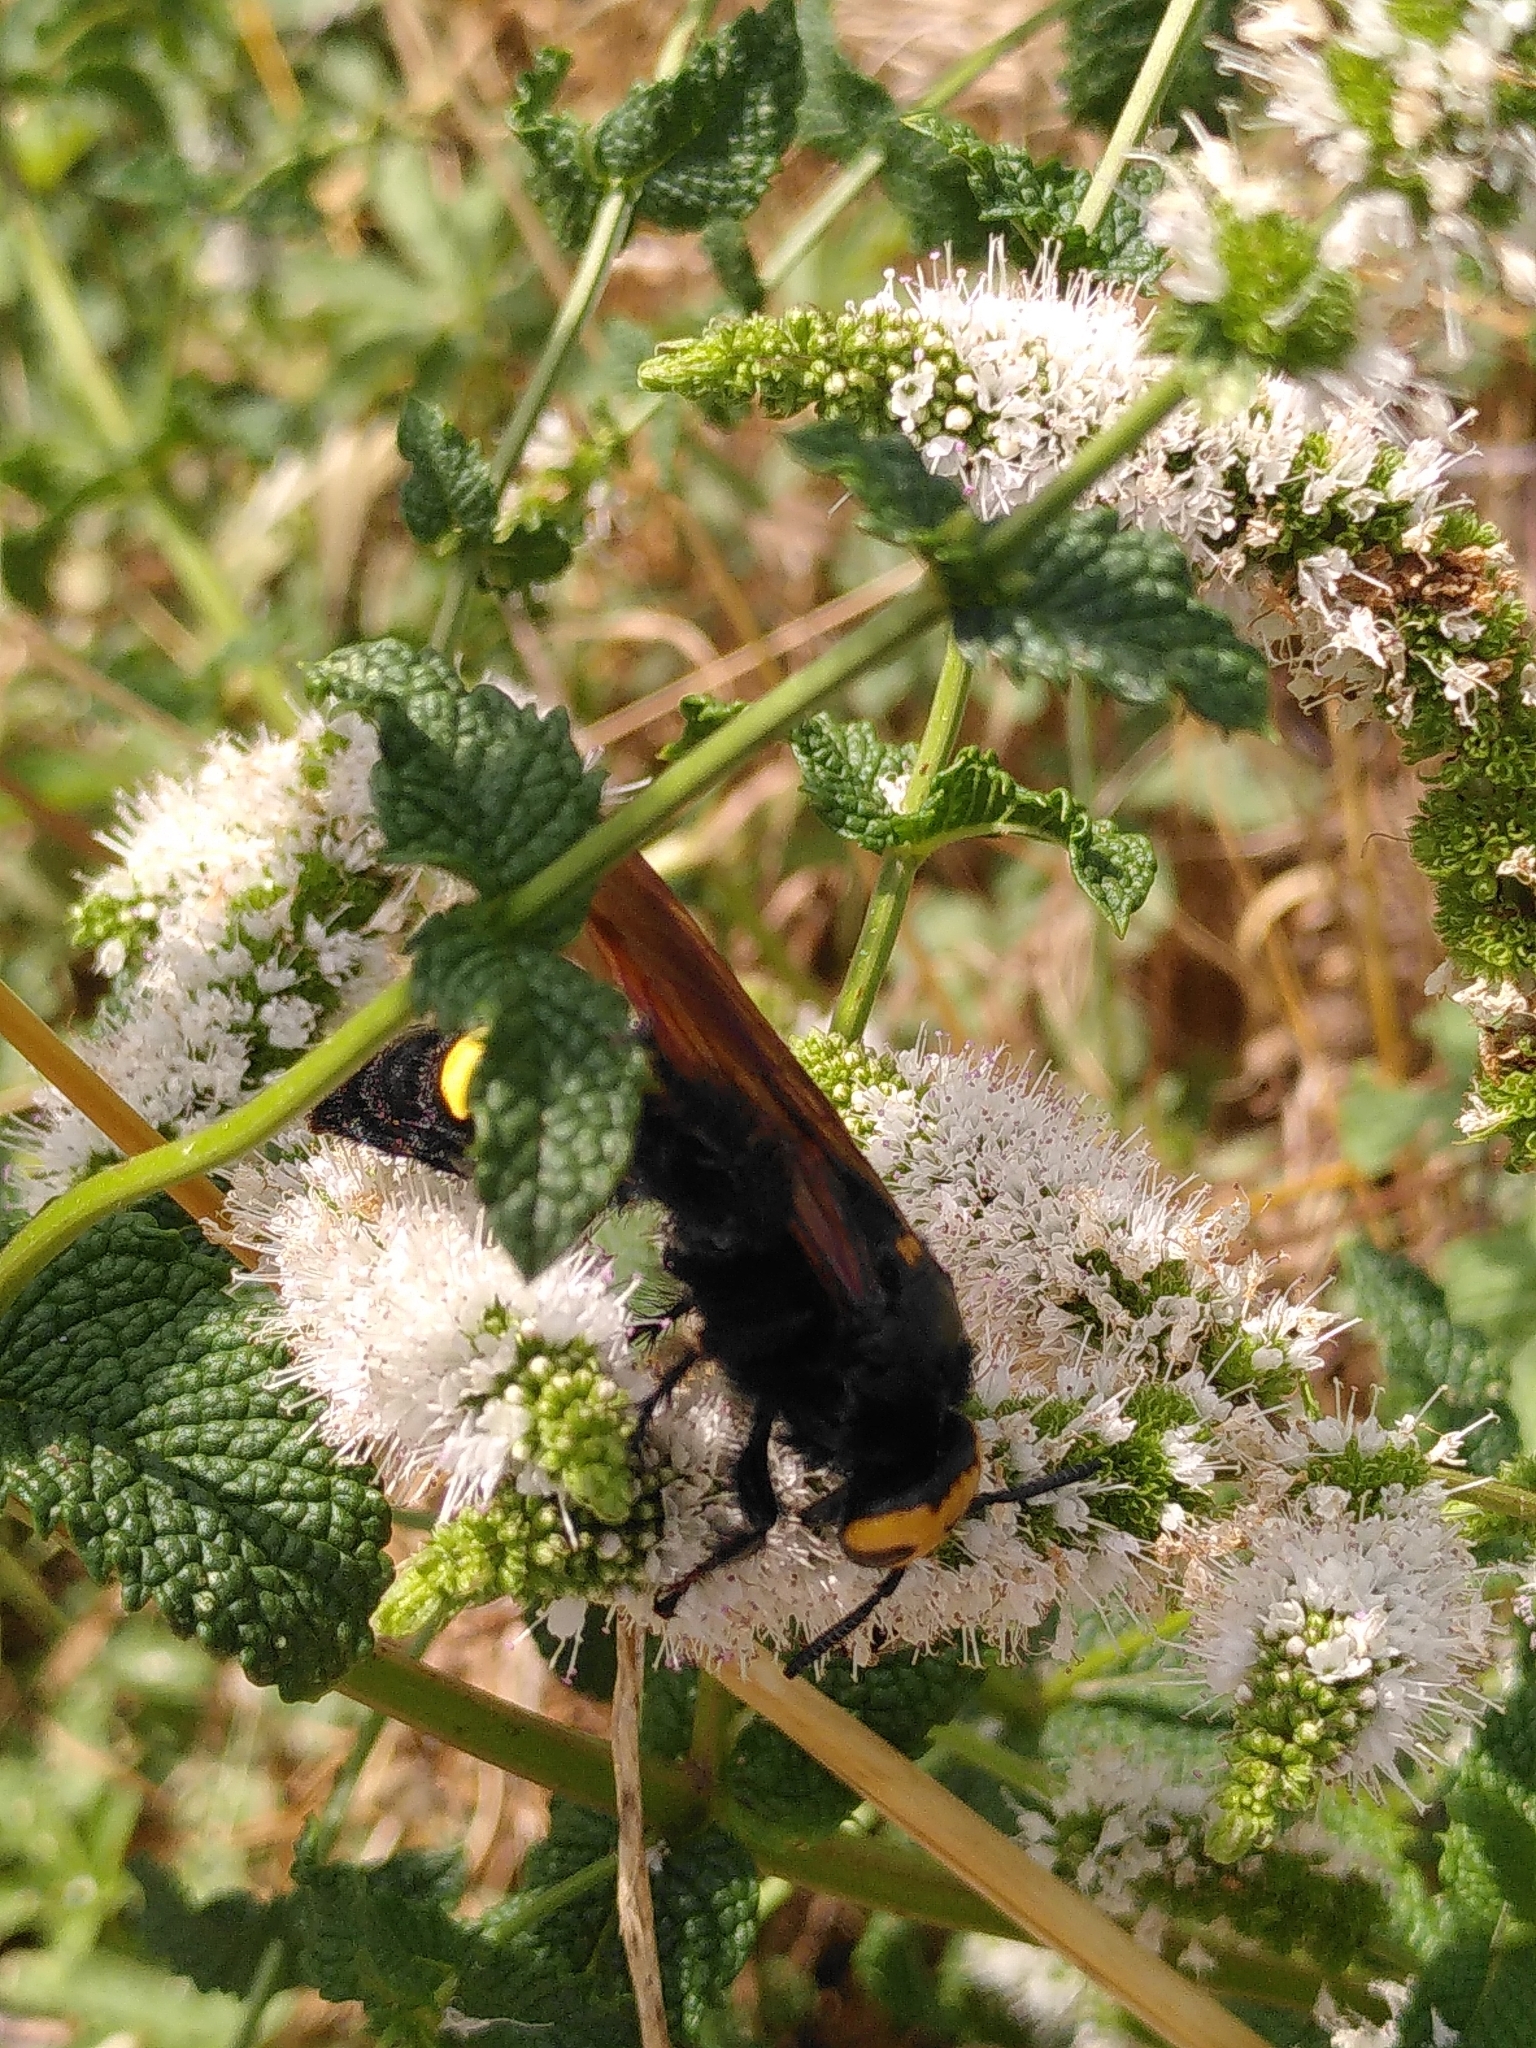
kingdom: Animalia
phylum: Arthropoda
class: Insecta
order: Hymenoptera
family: Scoliidae
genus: Megascolia
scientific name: Megascolia maculata
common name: Mammoth wasp
